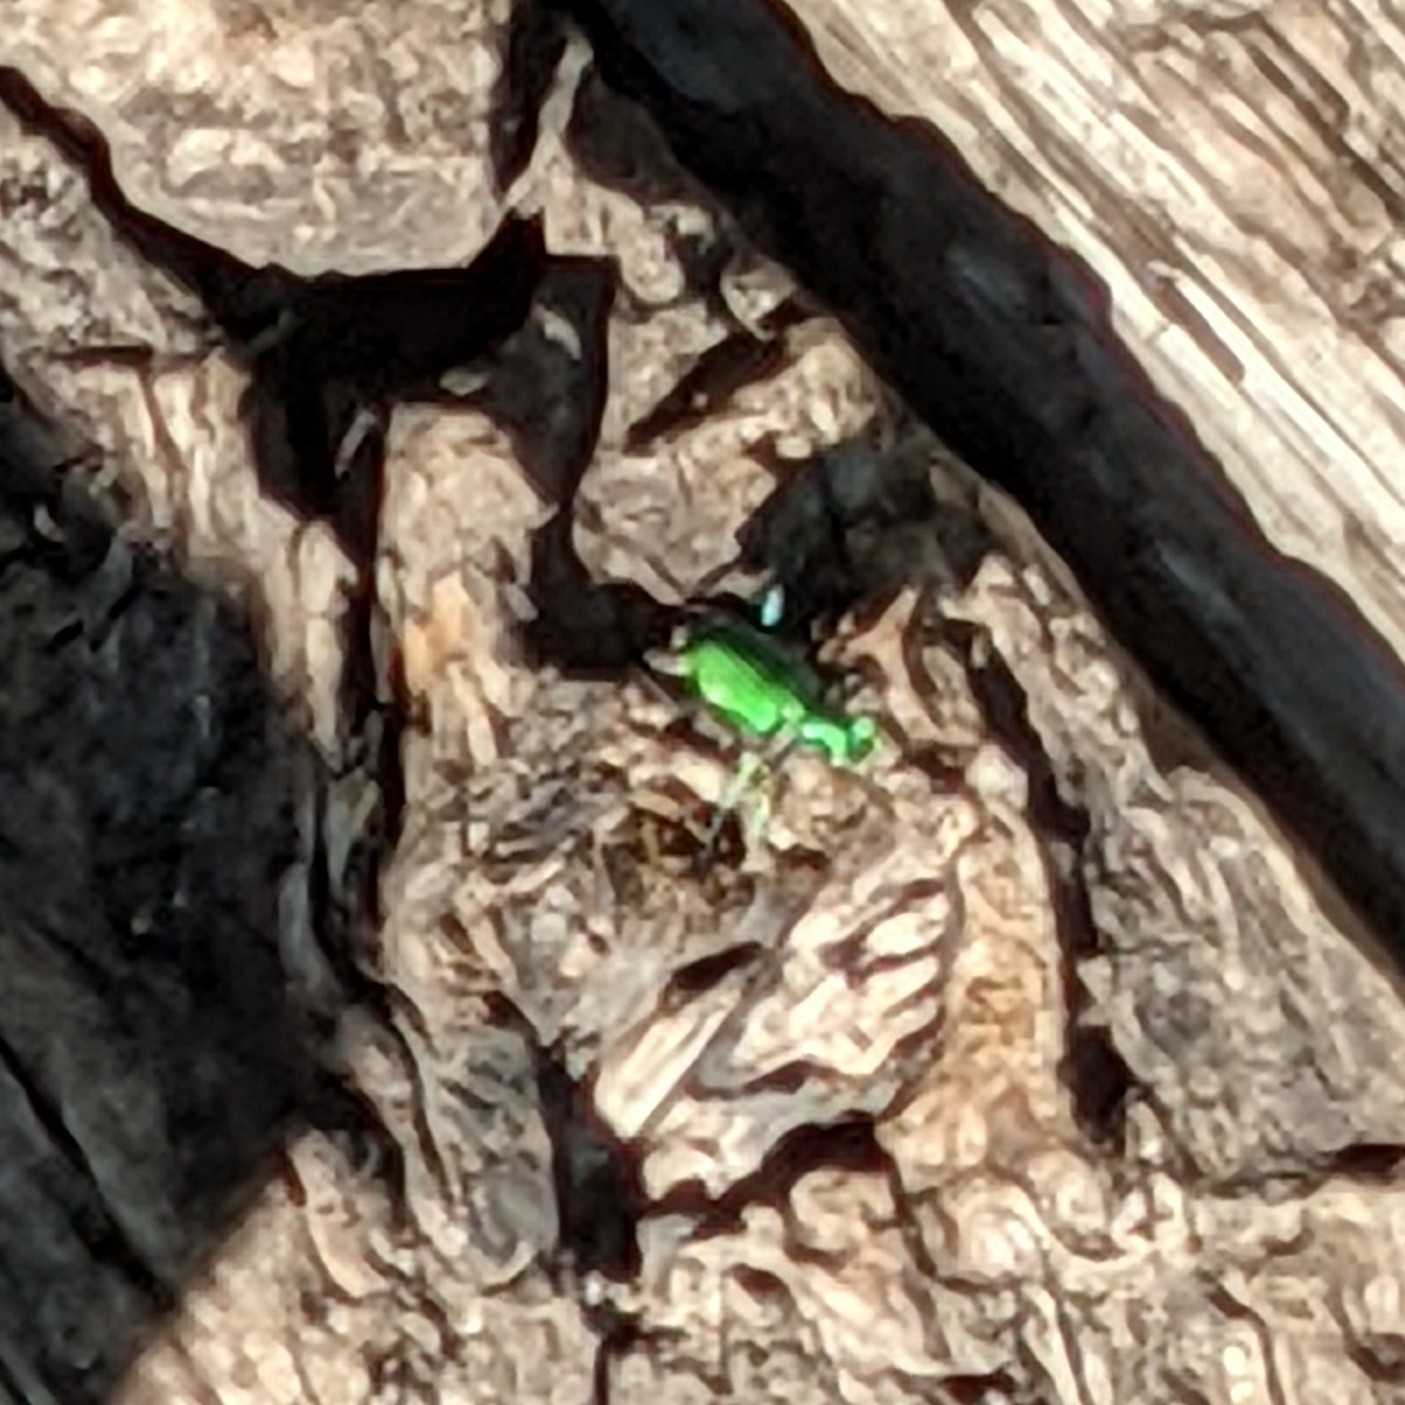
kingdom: Animalia
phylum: Arthropoda
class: Insecta
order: Coleoptera
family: Carabidae
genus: Cicindela
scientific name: Cicindela sexguttata
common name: Six-spotted tiger beetle
